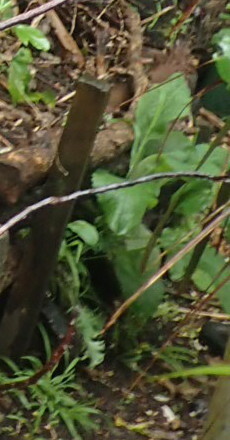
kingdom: Plantae
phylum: Tracheophyta
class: Magnoliopsida
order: Lamiales
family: Plantaginaceae
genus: Digitalis
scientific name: Digitalis purpurea
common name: Foxglove
